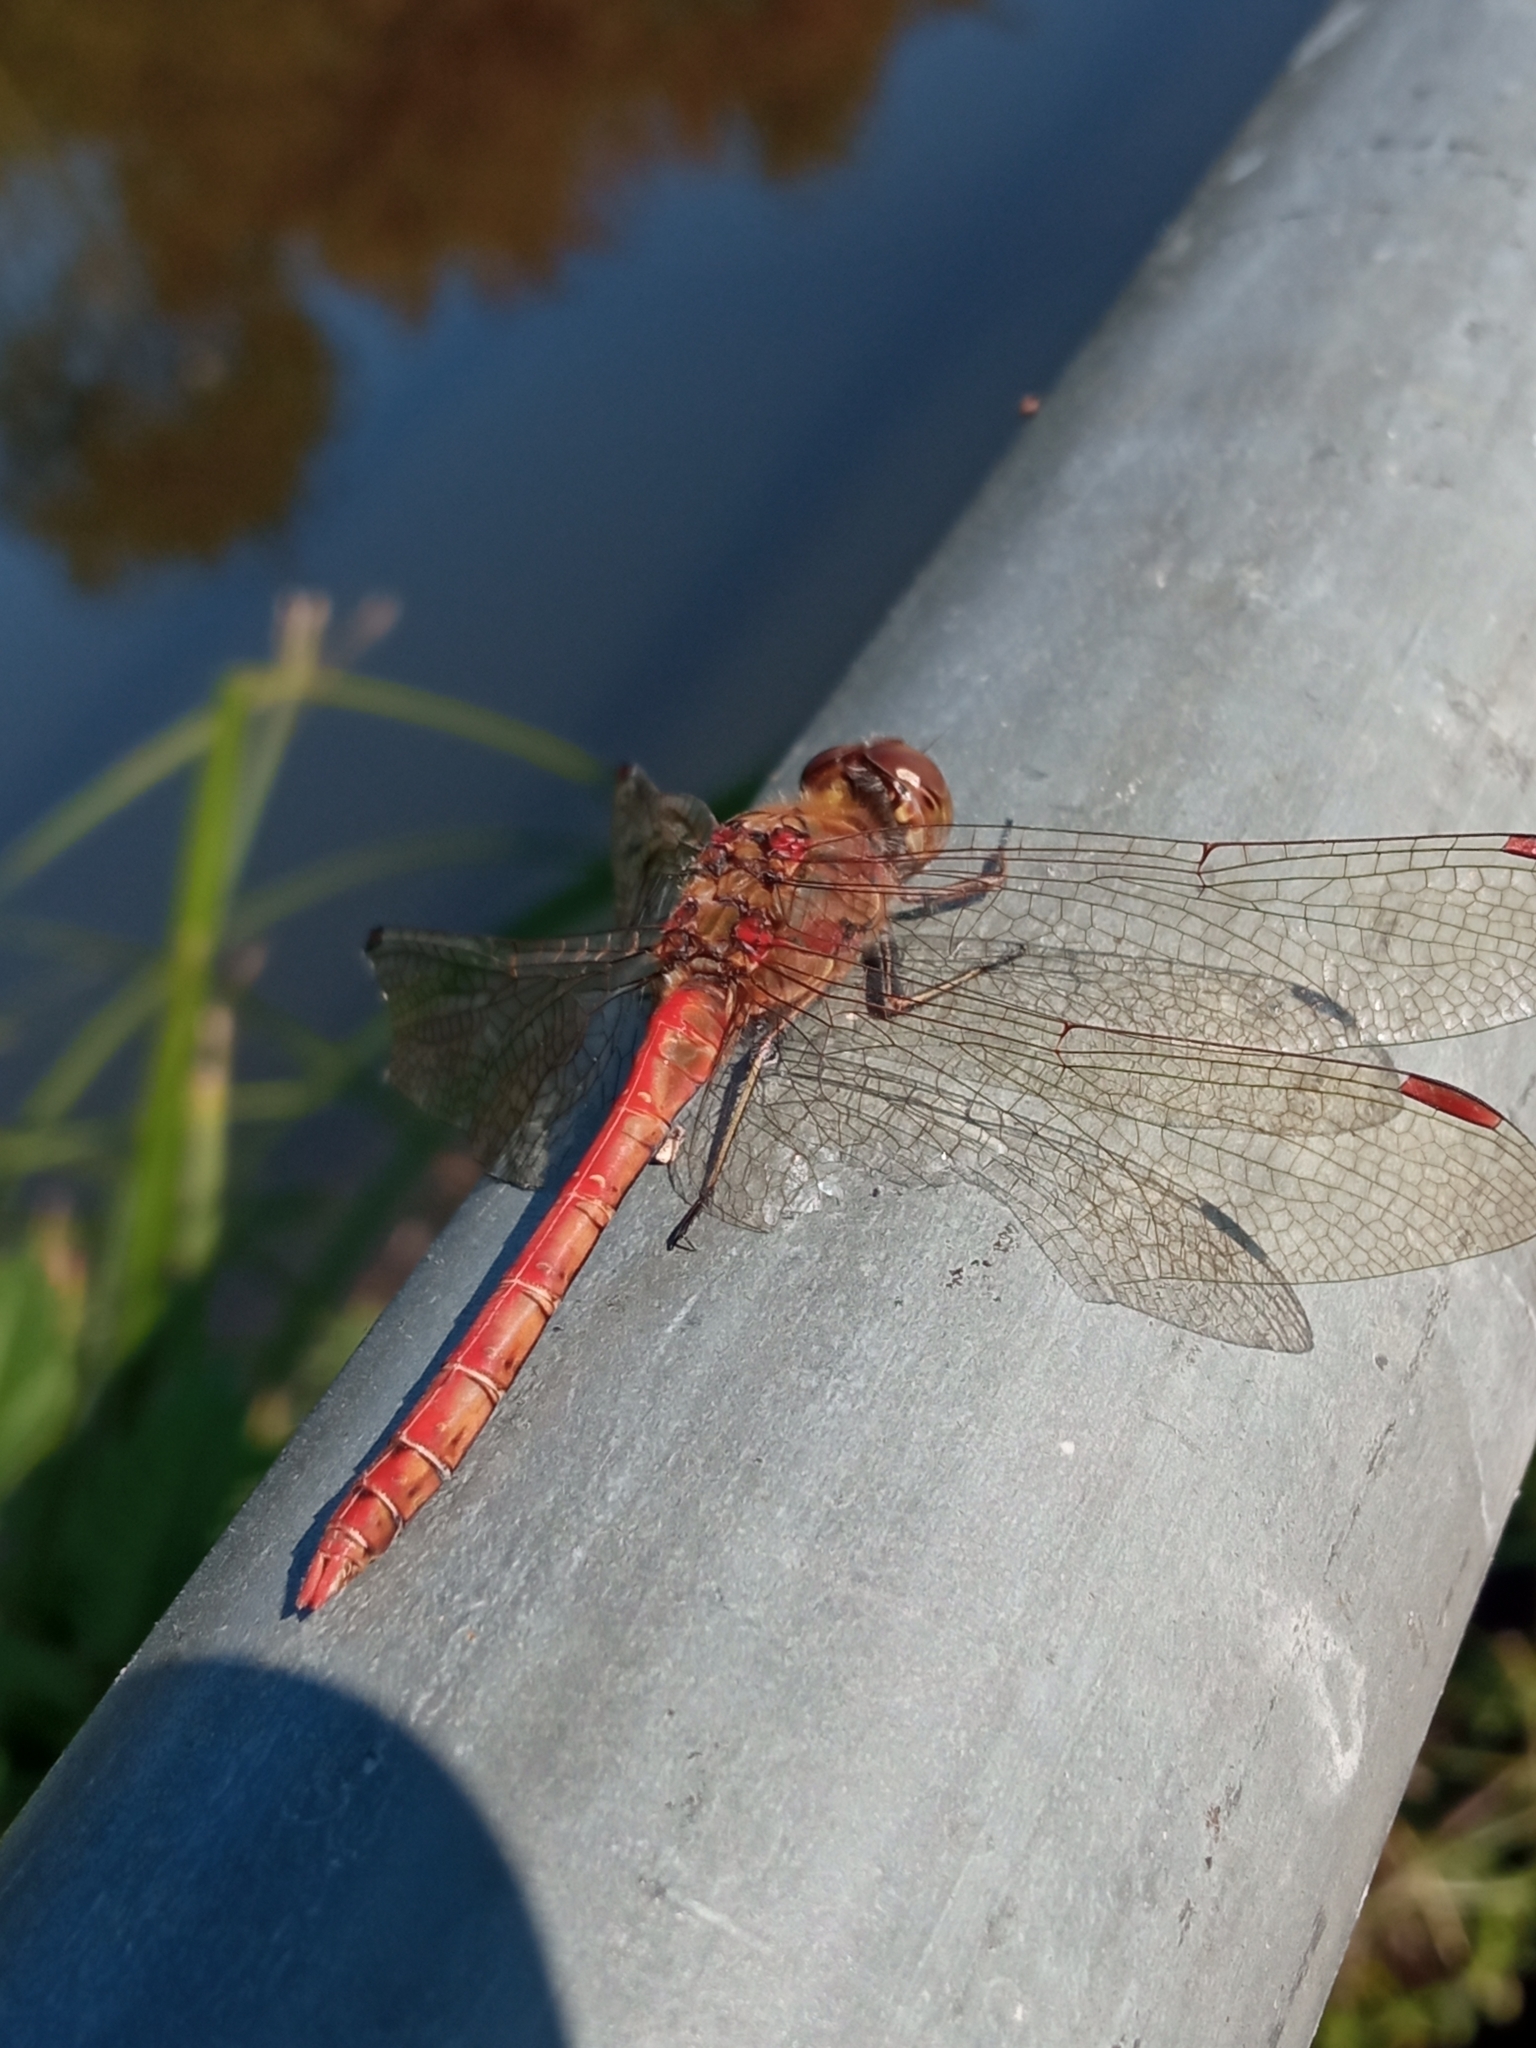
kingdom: Animalia
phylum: Arthropoda
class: Insecta
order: Odonata
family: Libellulidae
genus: Sympetrum
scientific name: Sympetrum striolatum
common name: Common darter
